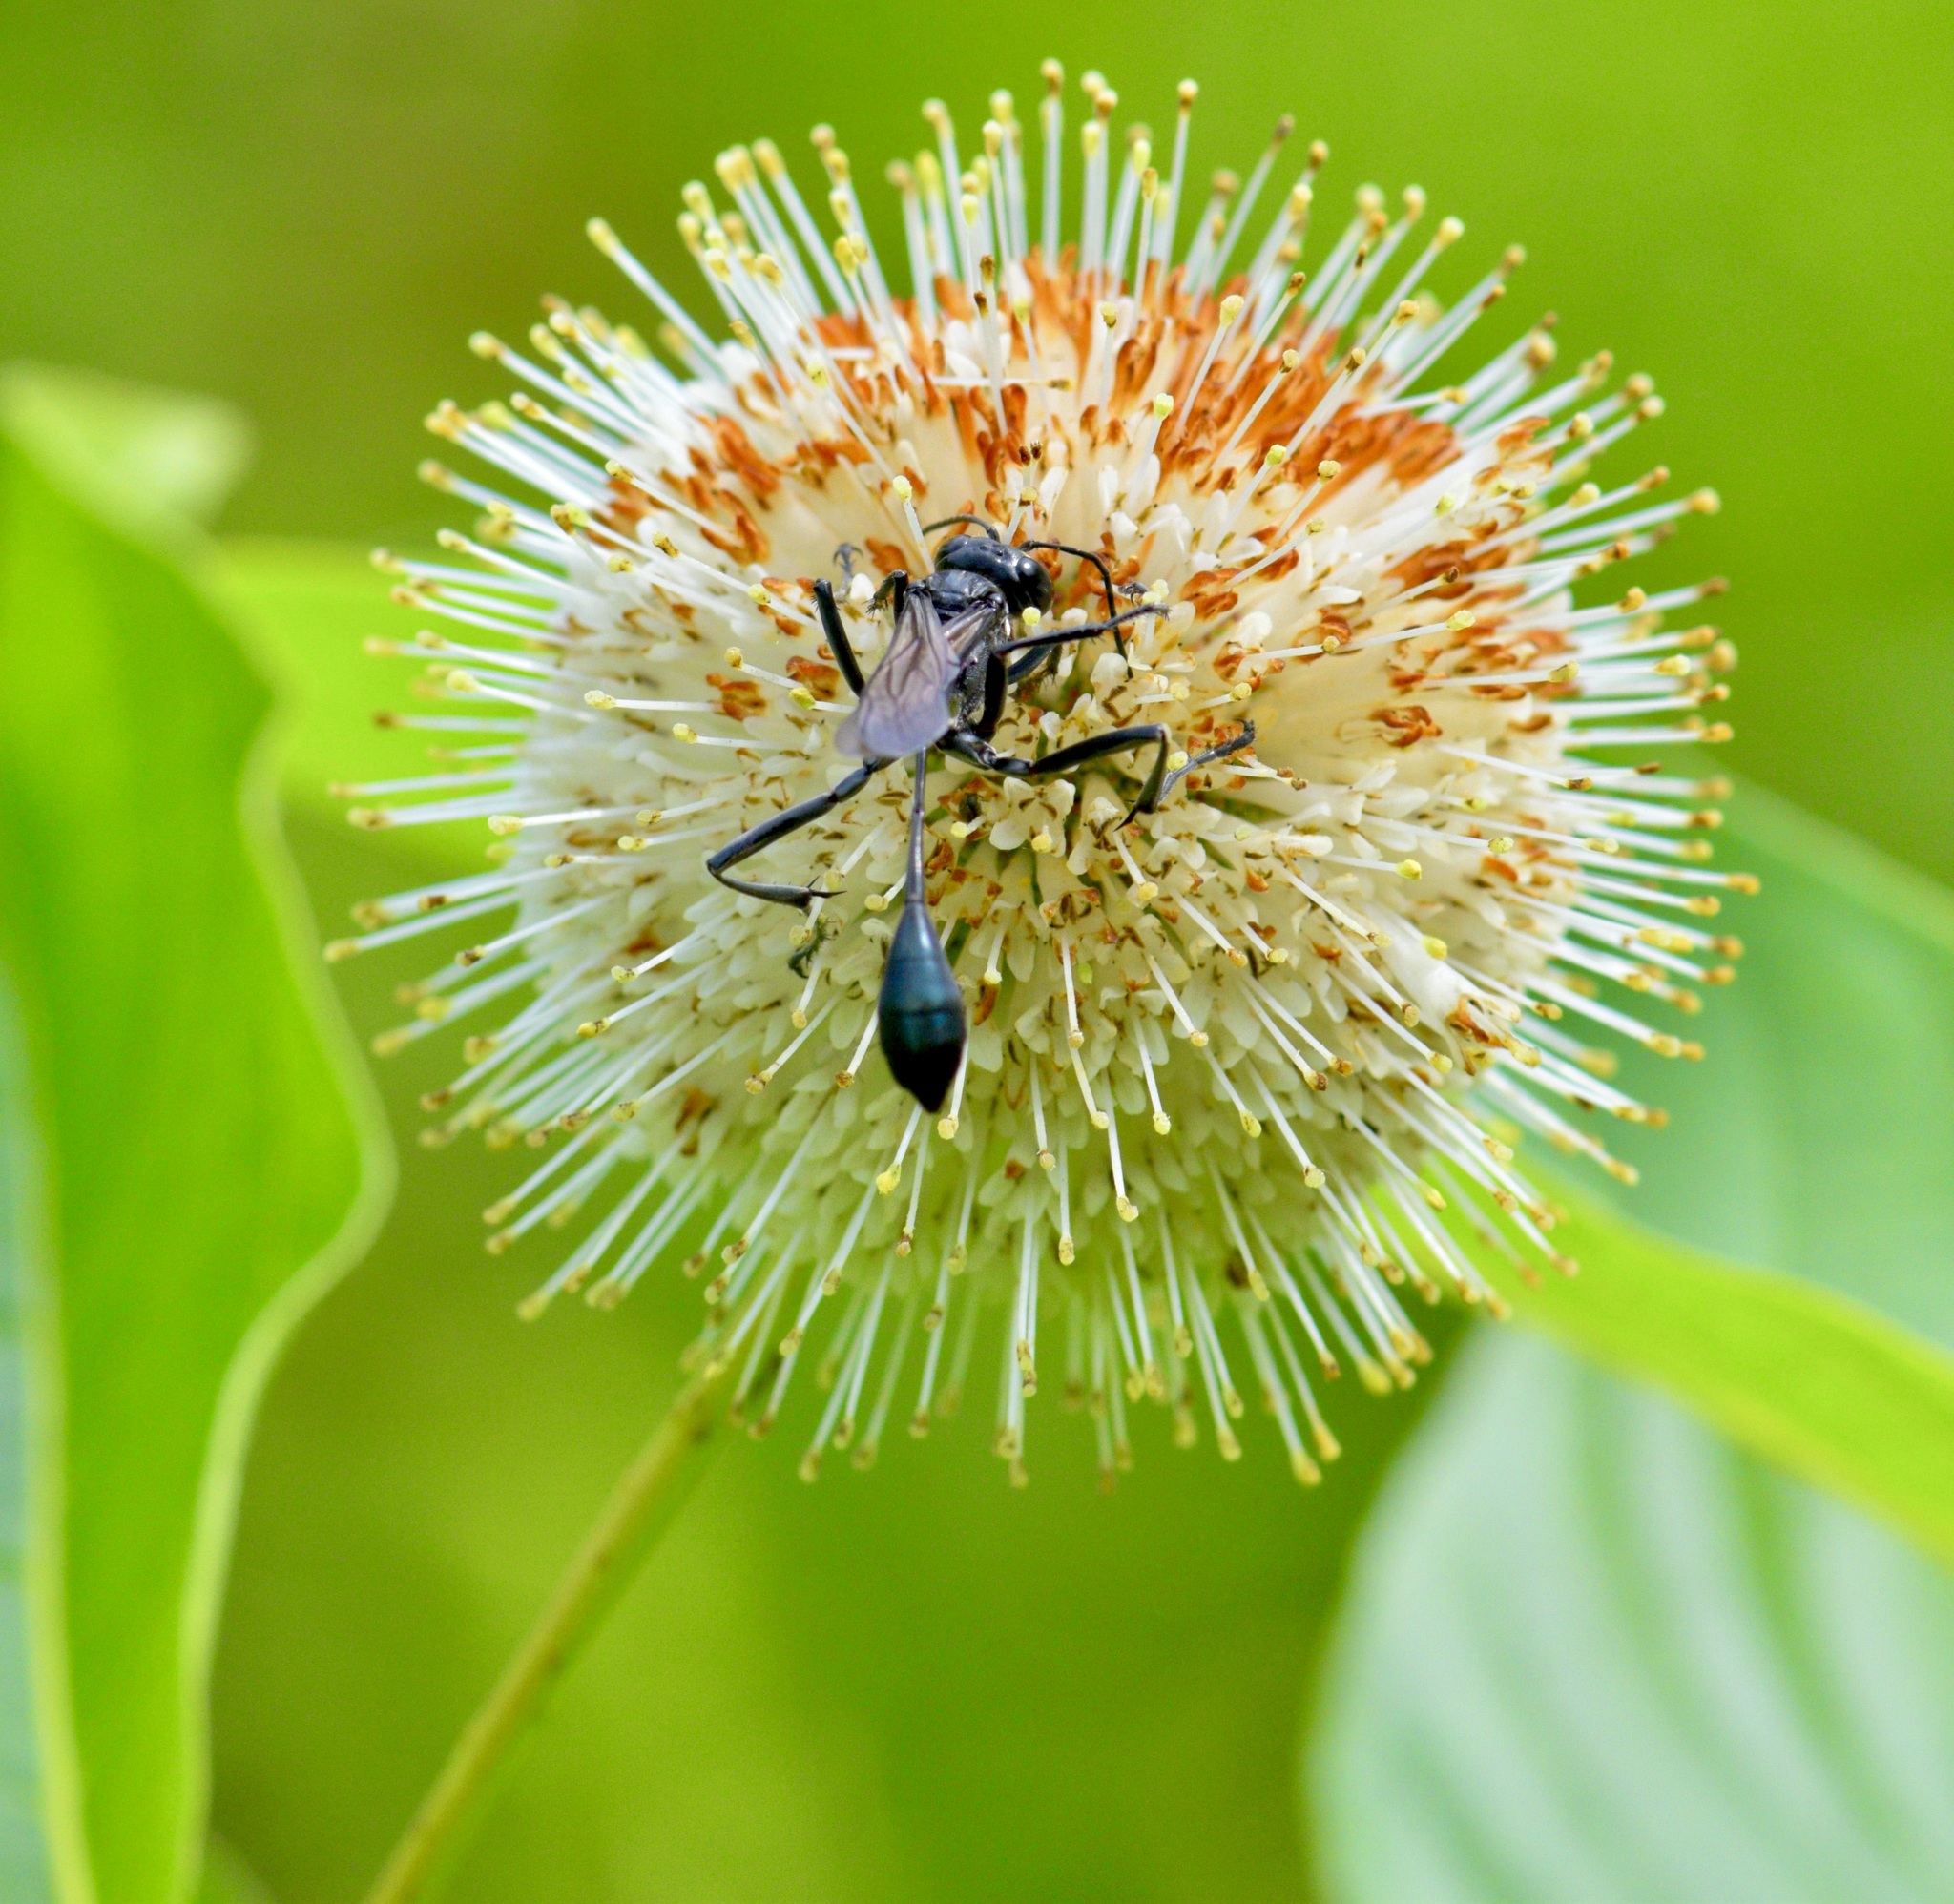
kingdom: Animalia
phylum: Arthropoda
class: Insecta
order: Hymenoptera
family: Sphecidae
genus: Eremnophila
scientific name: Eremnophila aureonotata
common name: Gold-marked thread-waisted wasp
